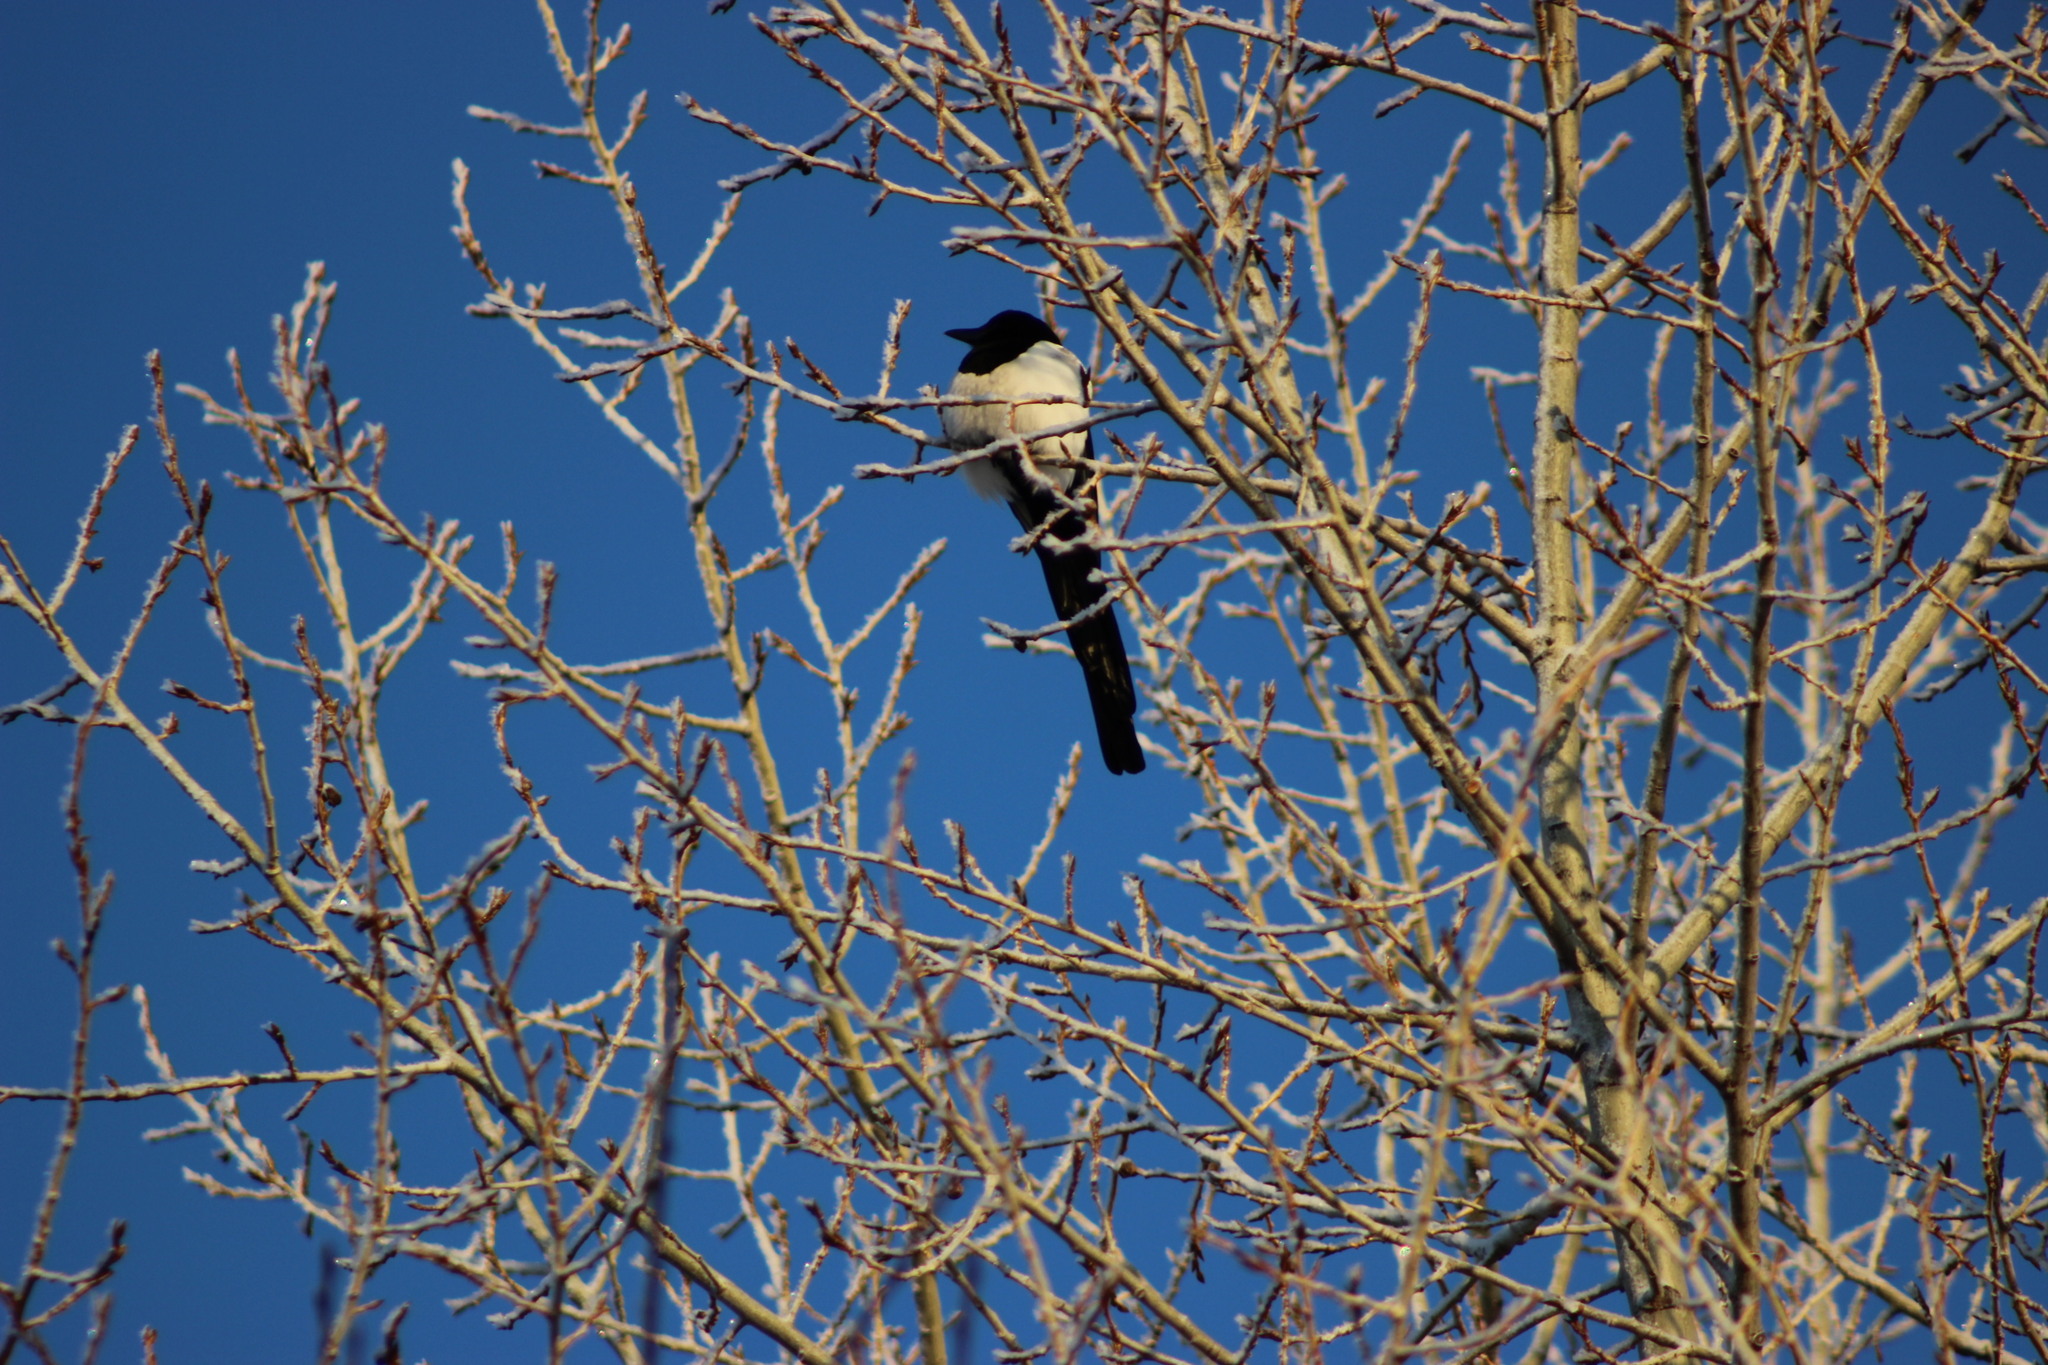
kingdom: Animalia
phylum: Chordata
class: Aves
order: Passeriformes
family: Corvidae
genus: Pica
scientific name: Pica pica
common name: Eurasian magpie
